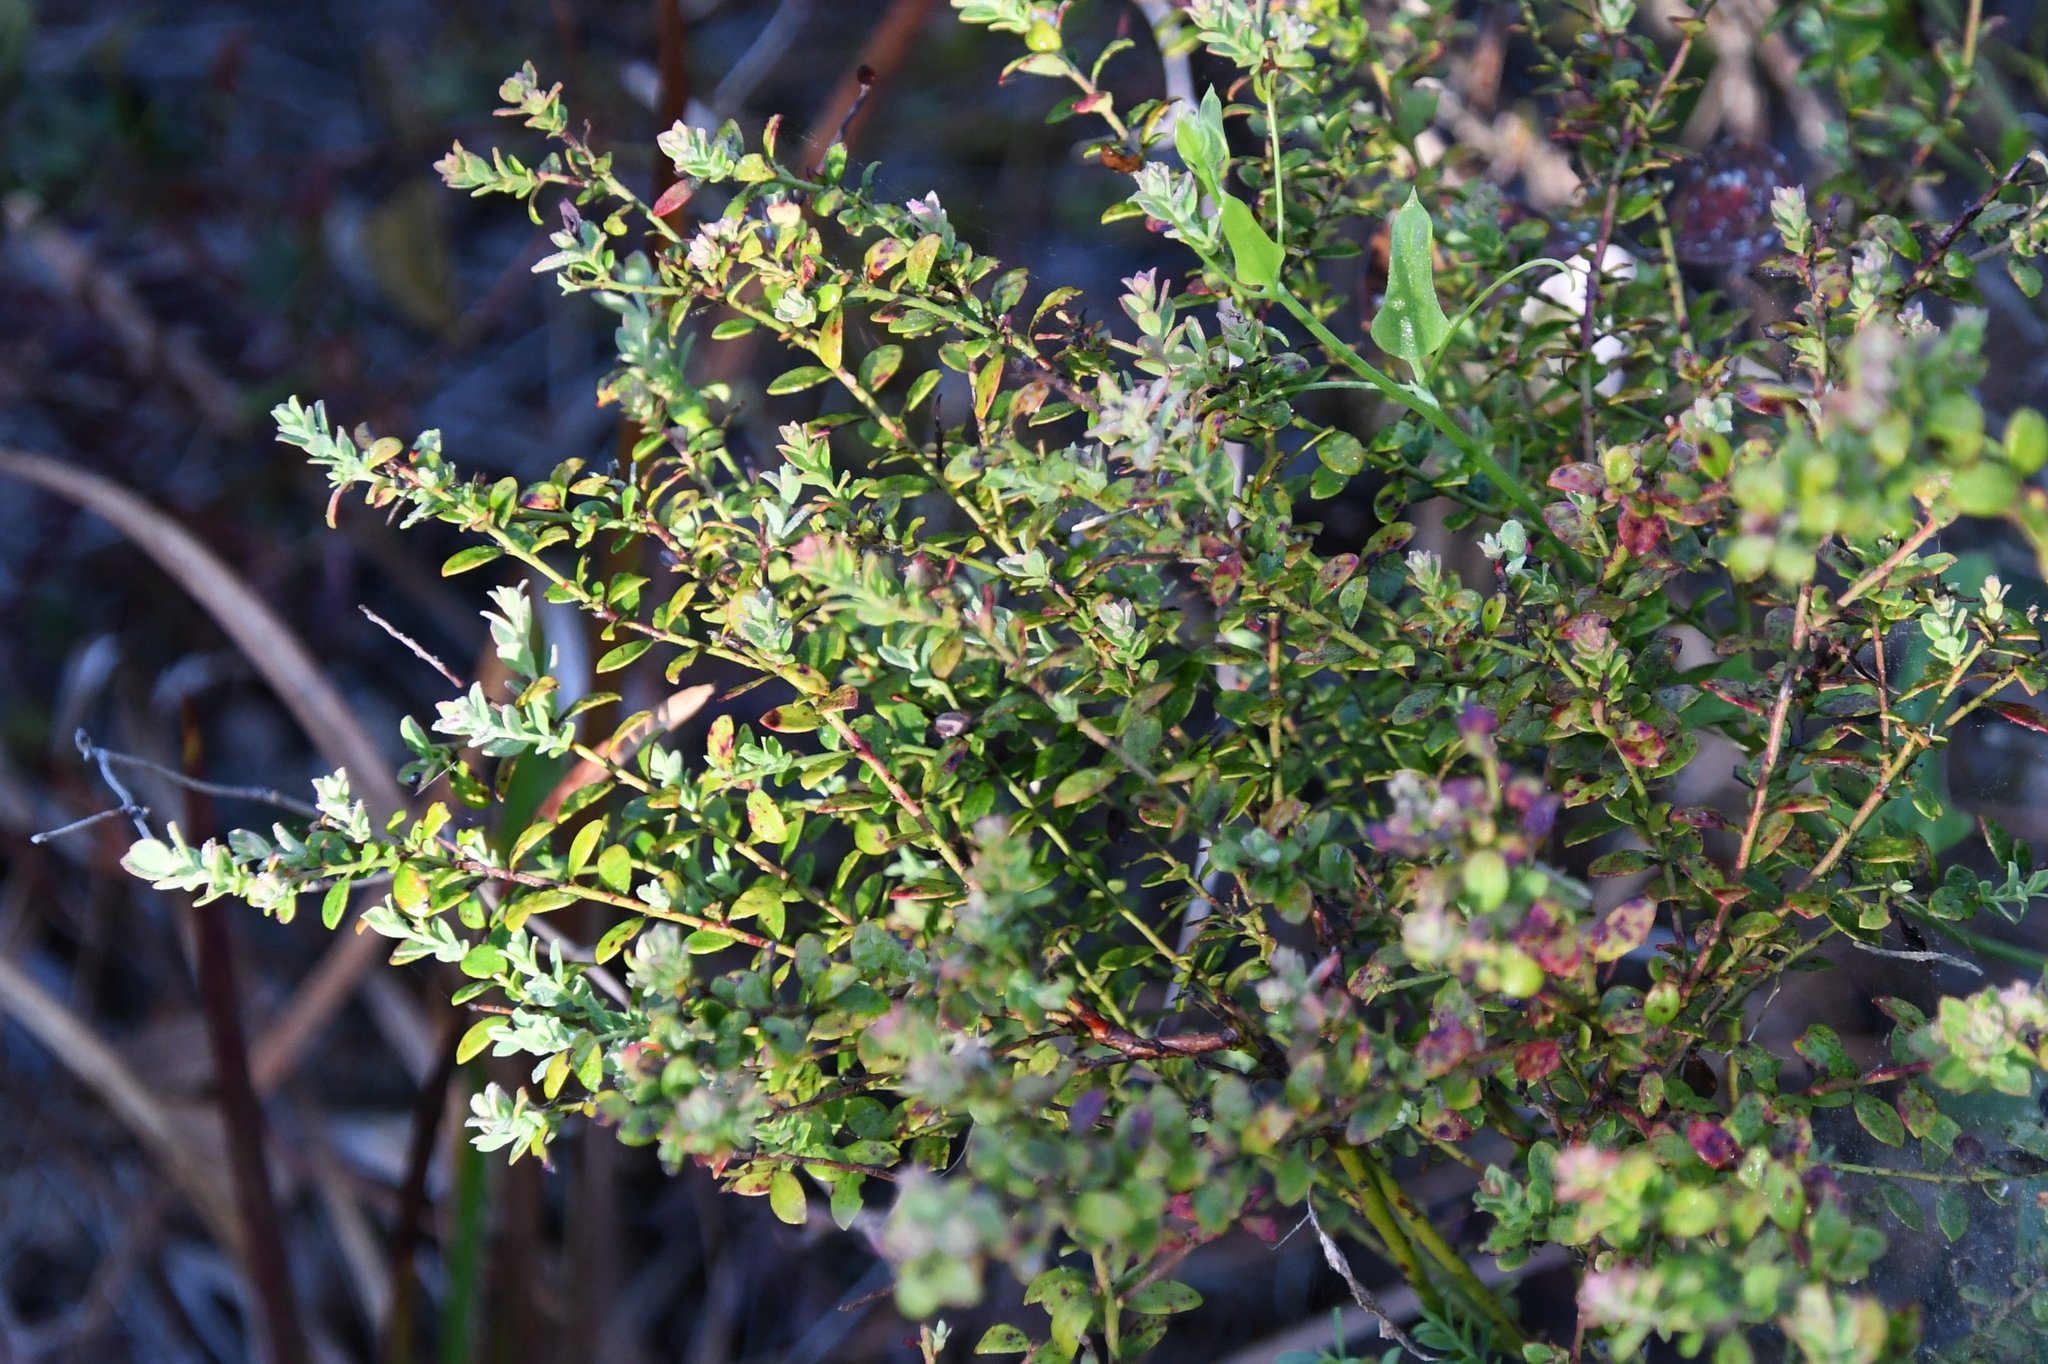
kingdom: Plantae
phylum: Tracheophyta
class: Magnoliopsida
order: Ericales
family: Ericaceae
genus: Vaccinium
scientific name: Vaccinium darrowii
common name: Darrow's blueberry
